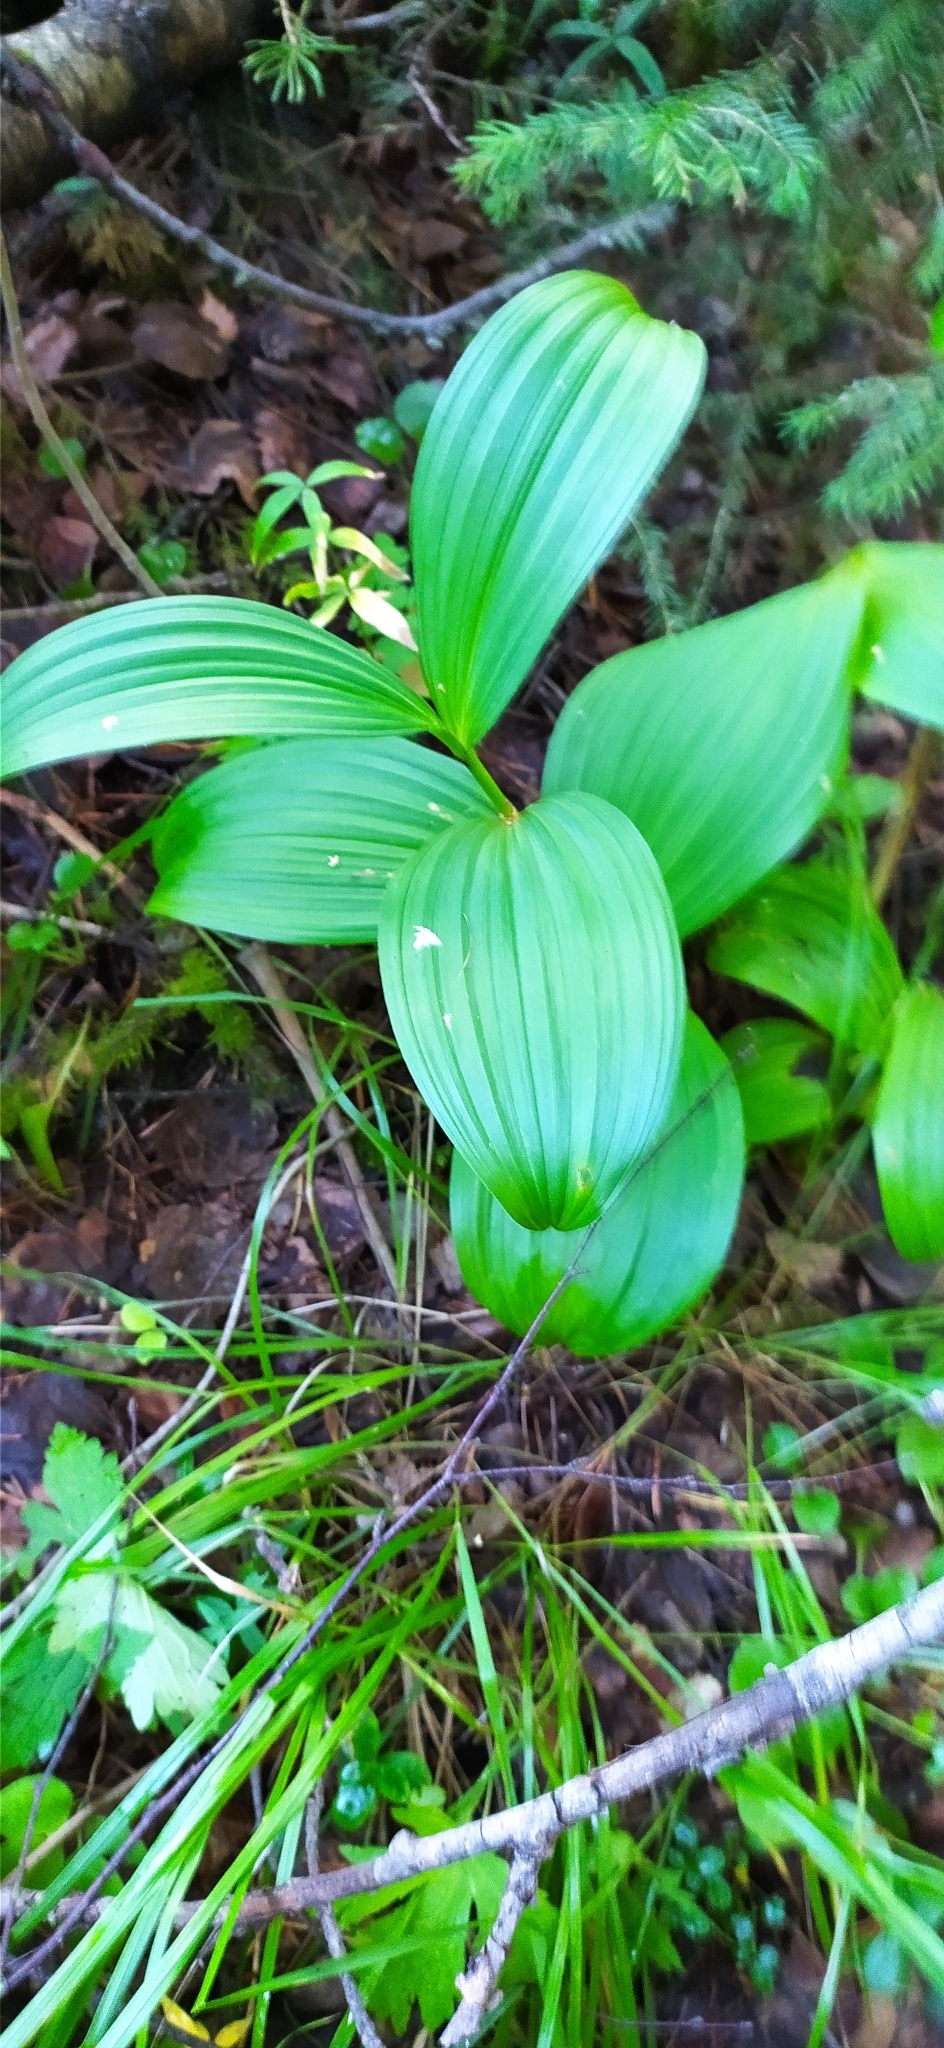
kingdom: Plantae
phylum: Tracheophyta
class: Liliopsida
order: Liliales
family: Melanthiaceae
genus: Veratrum
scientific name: Veratrum lobelianum
